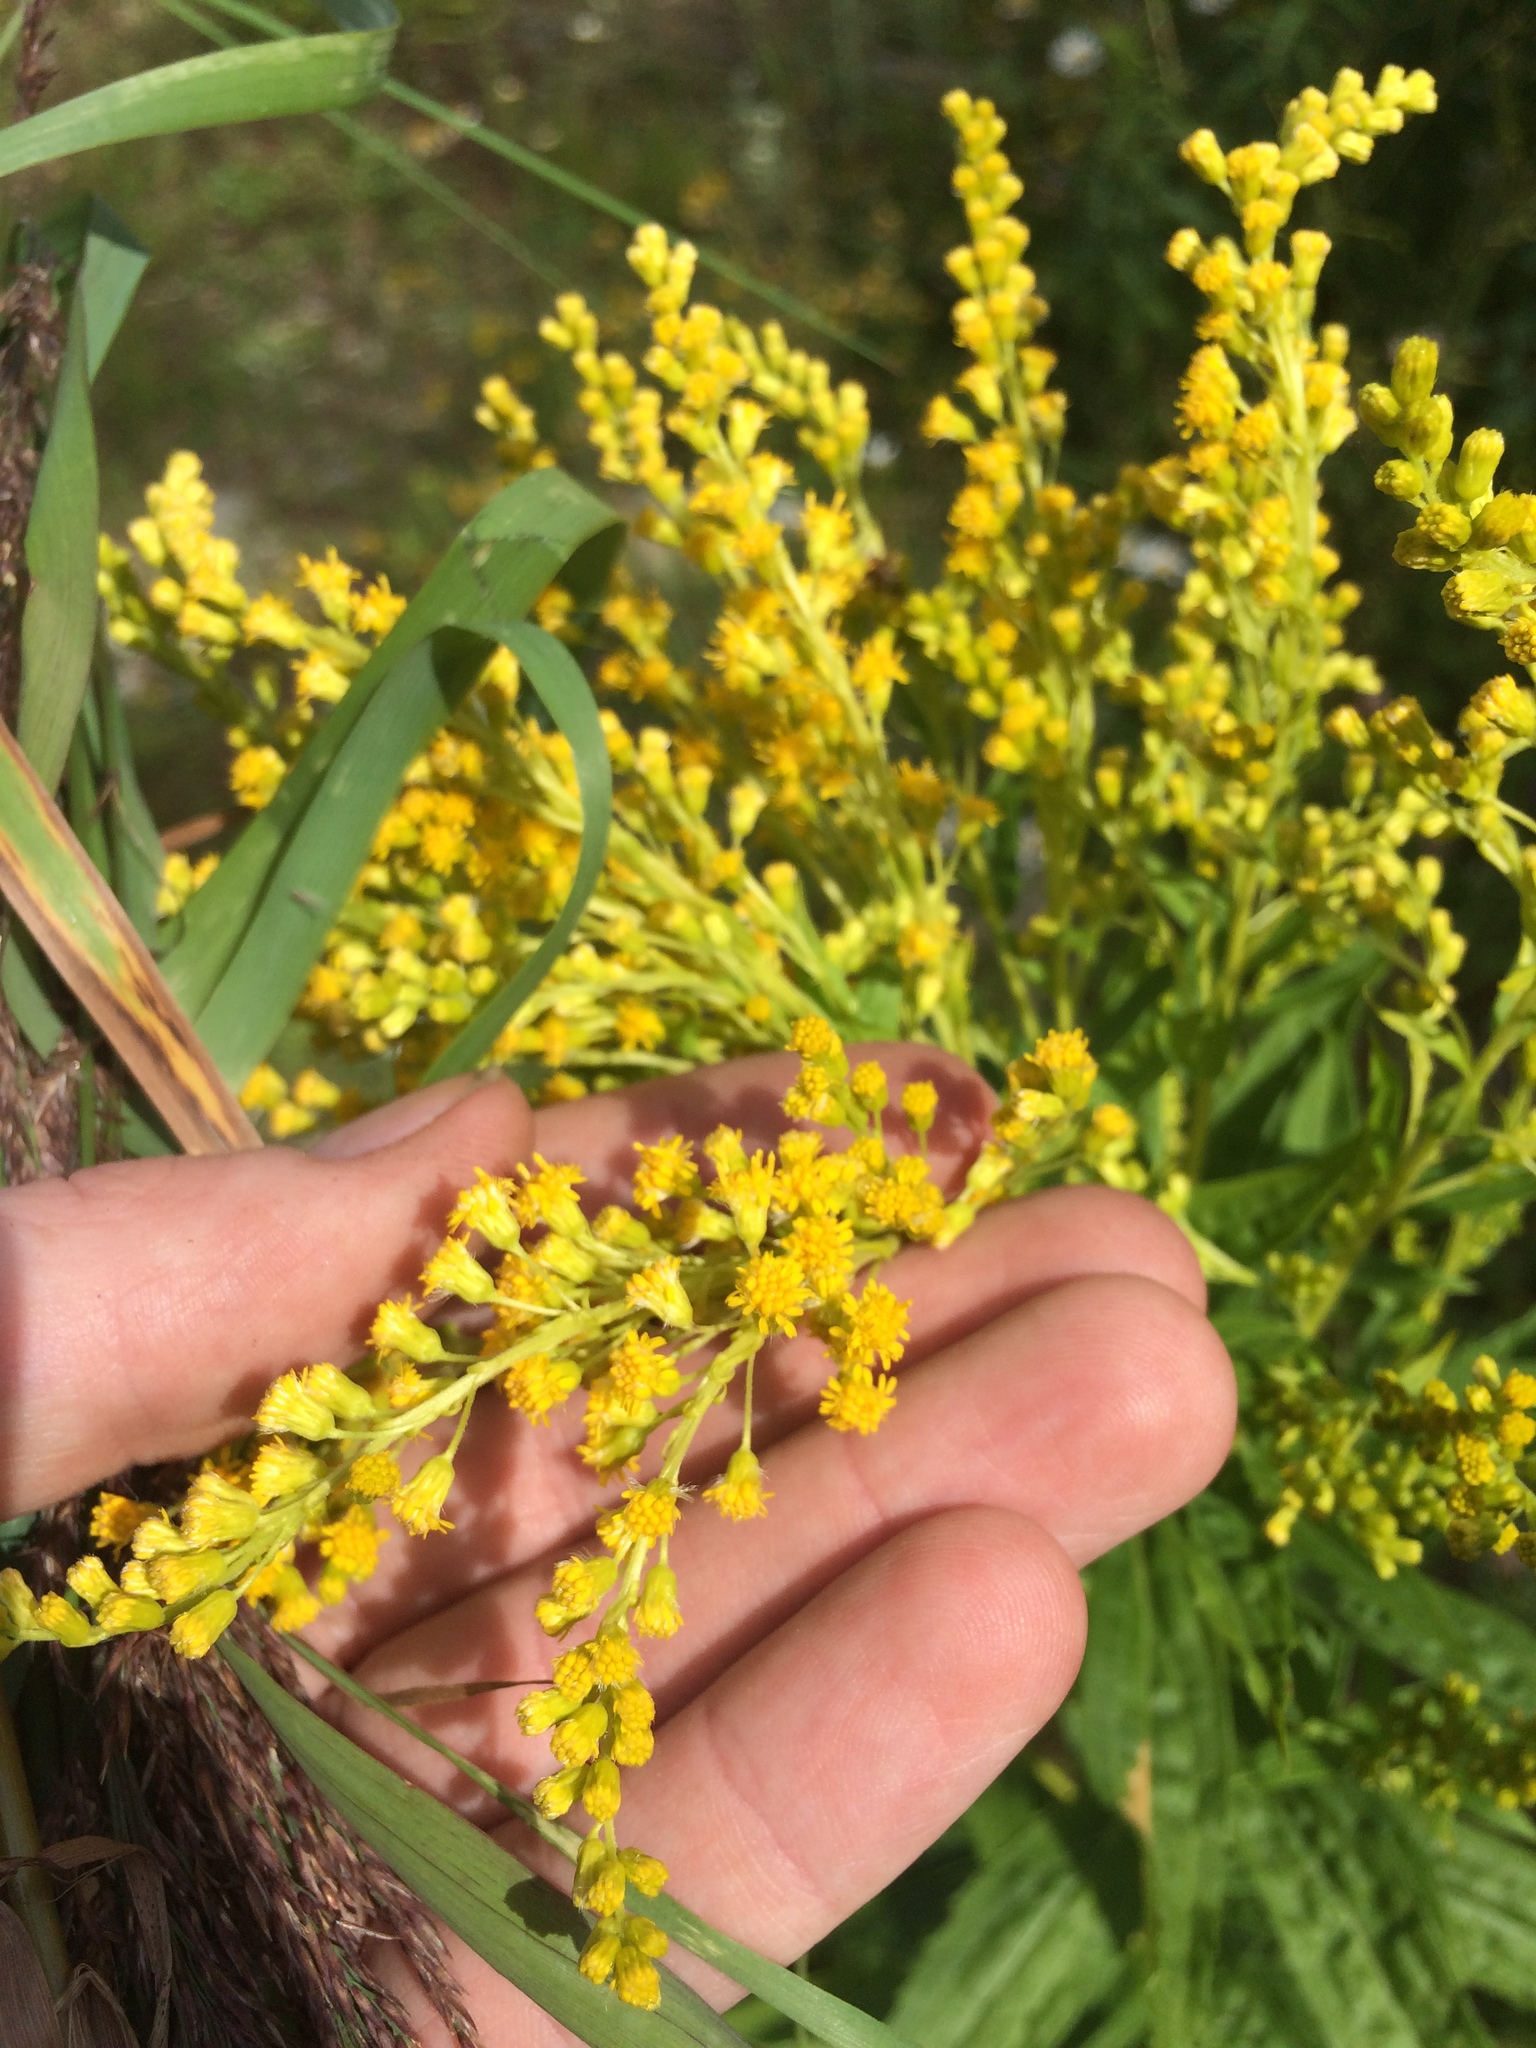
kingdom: Plantae
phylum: Tracheophyta
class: Magnoliopsida
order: Asterales
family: Asteraceae
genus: Solidago
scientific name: Solidago brendae
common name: Brenda's goldenrod
